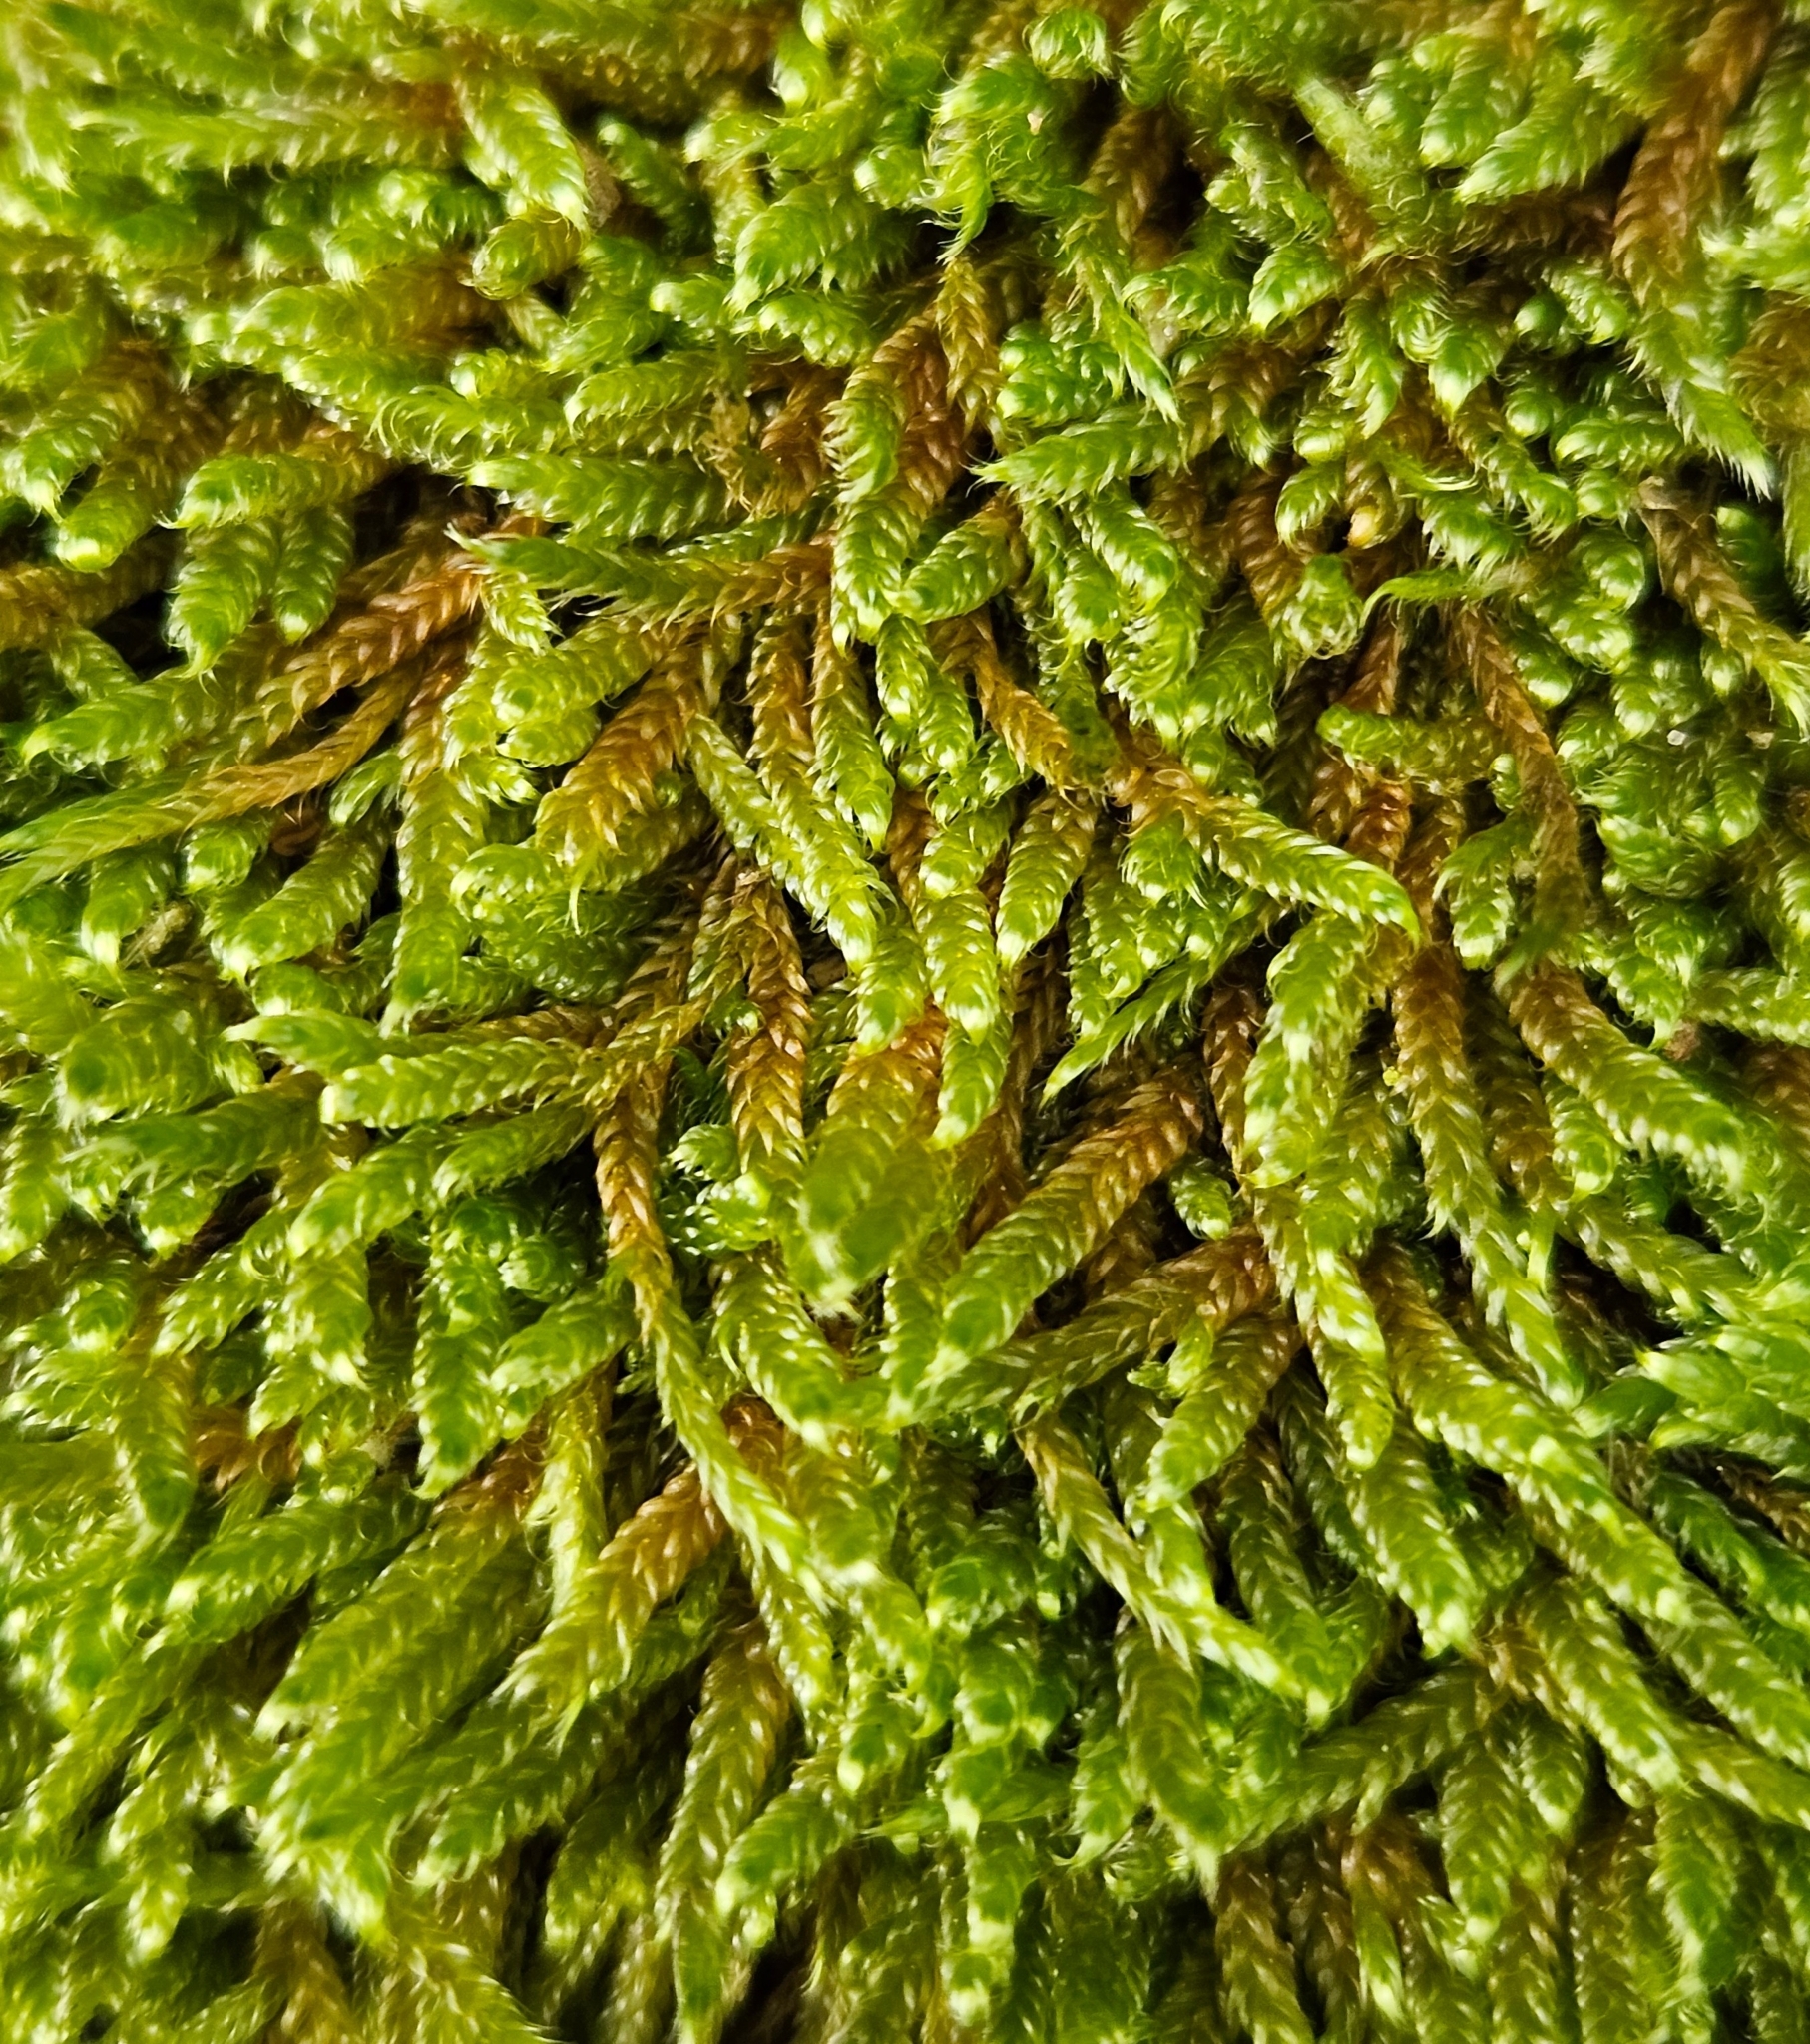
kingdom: Plantae
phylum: Bryophyta
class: Bryopsida
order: Hypnales
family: Hypnaceae
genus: Hypnum
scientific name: Hypnum cupressiforme
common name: Cypress-leaved plait-moss
